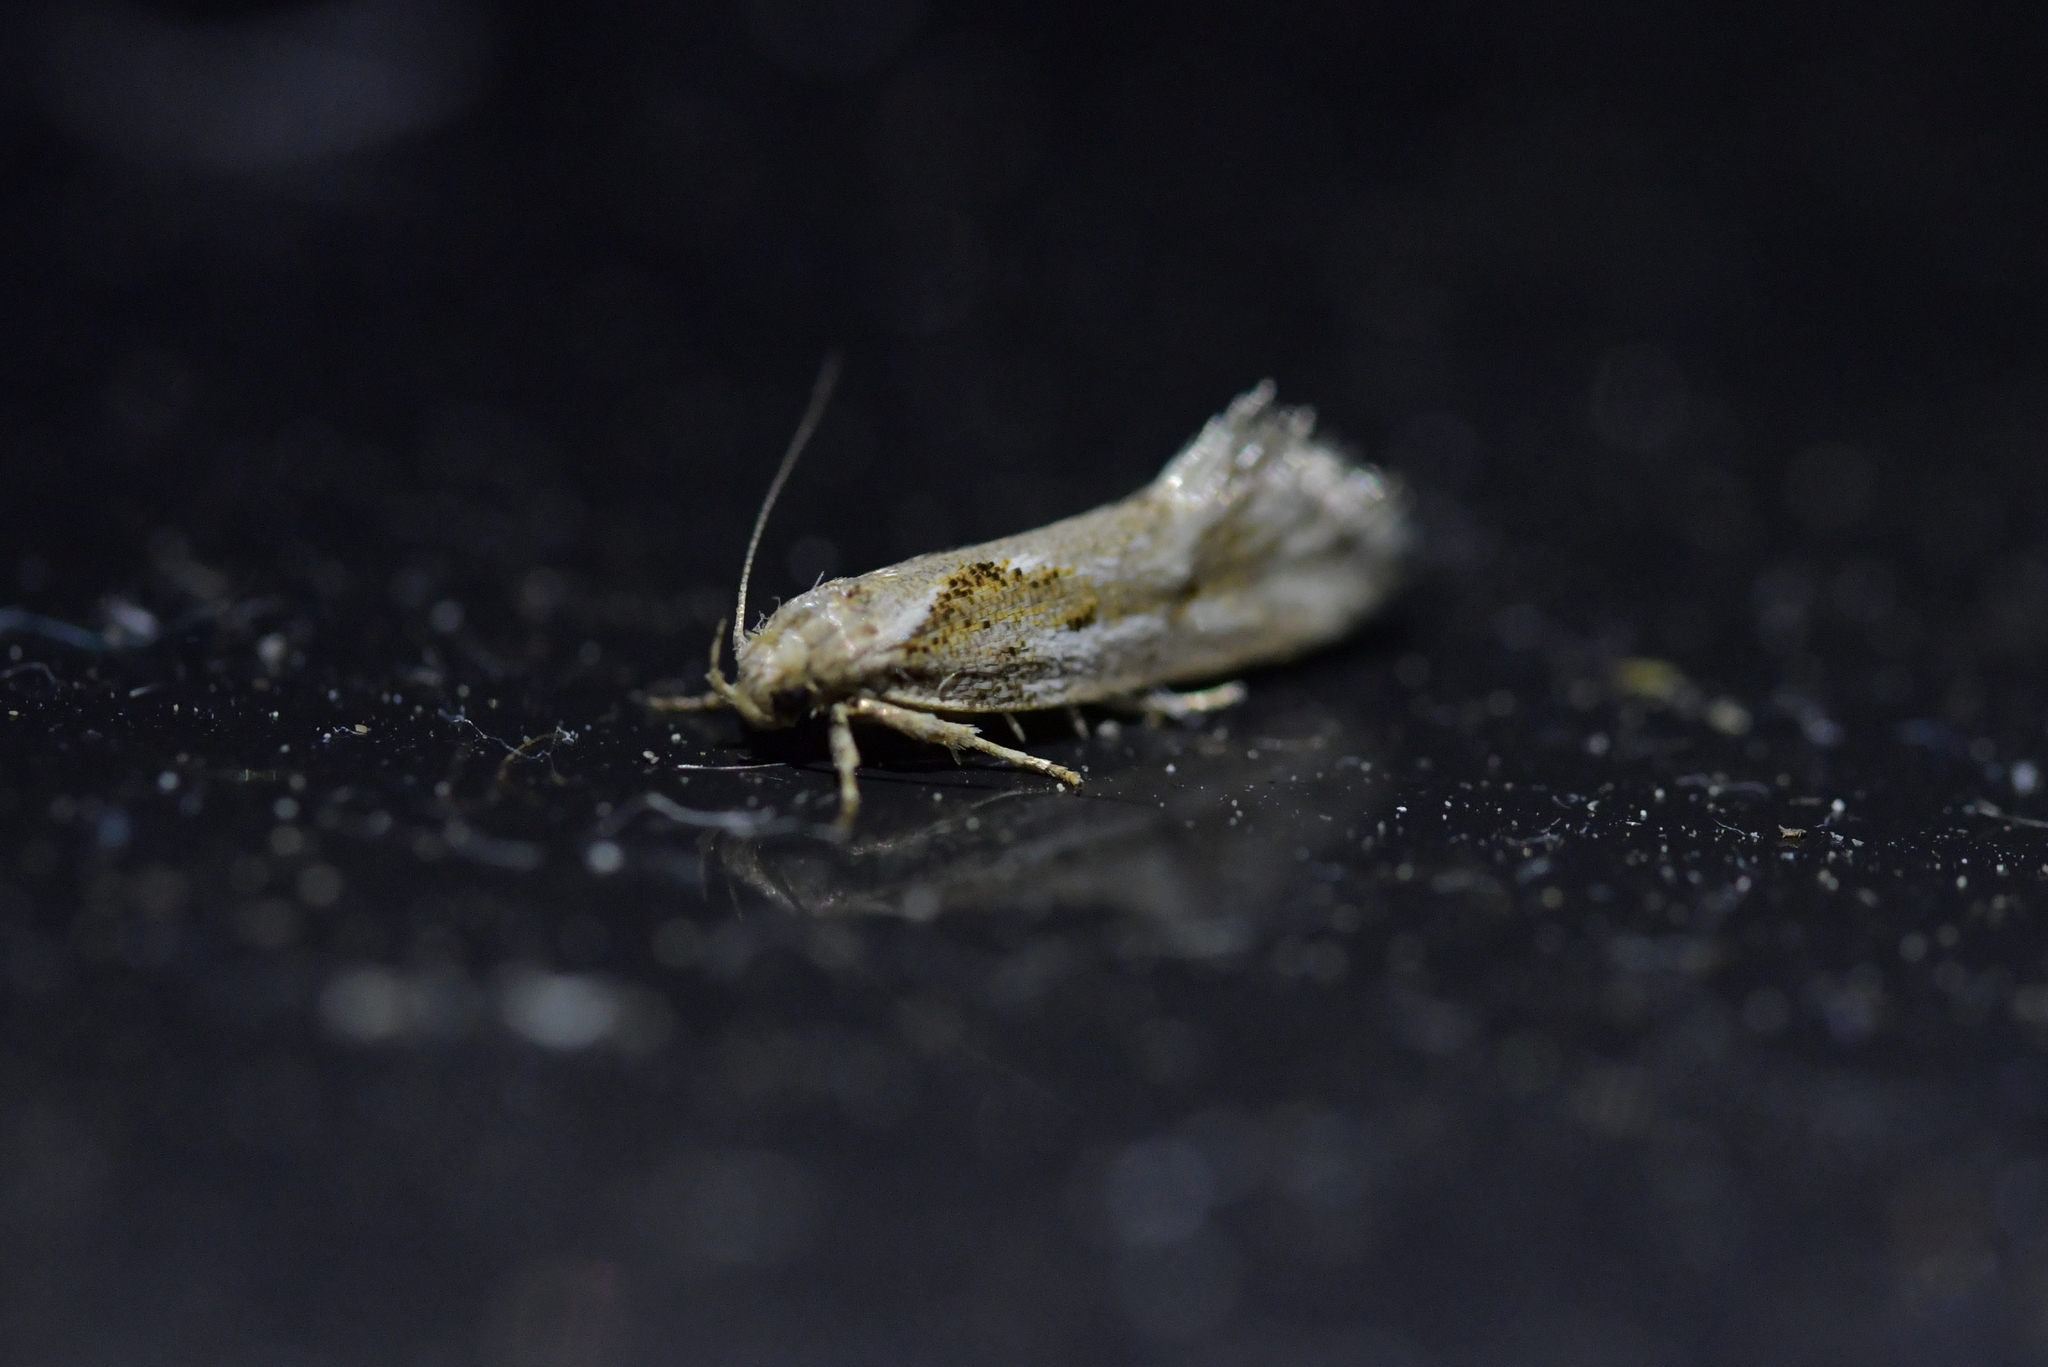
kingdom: Animalia
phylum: Arthropoda
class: Insecta
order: Lepidoptera
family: Oecophoridae
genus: Tingena
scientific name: Tingena hemimochla
